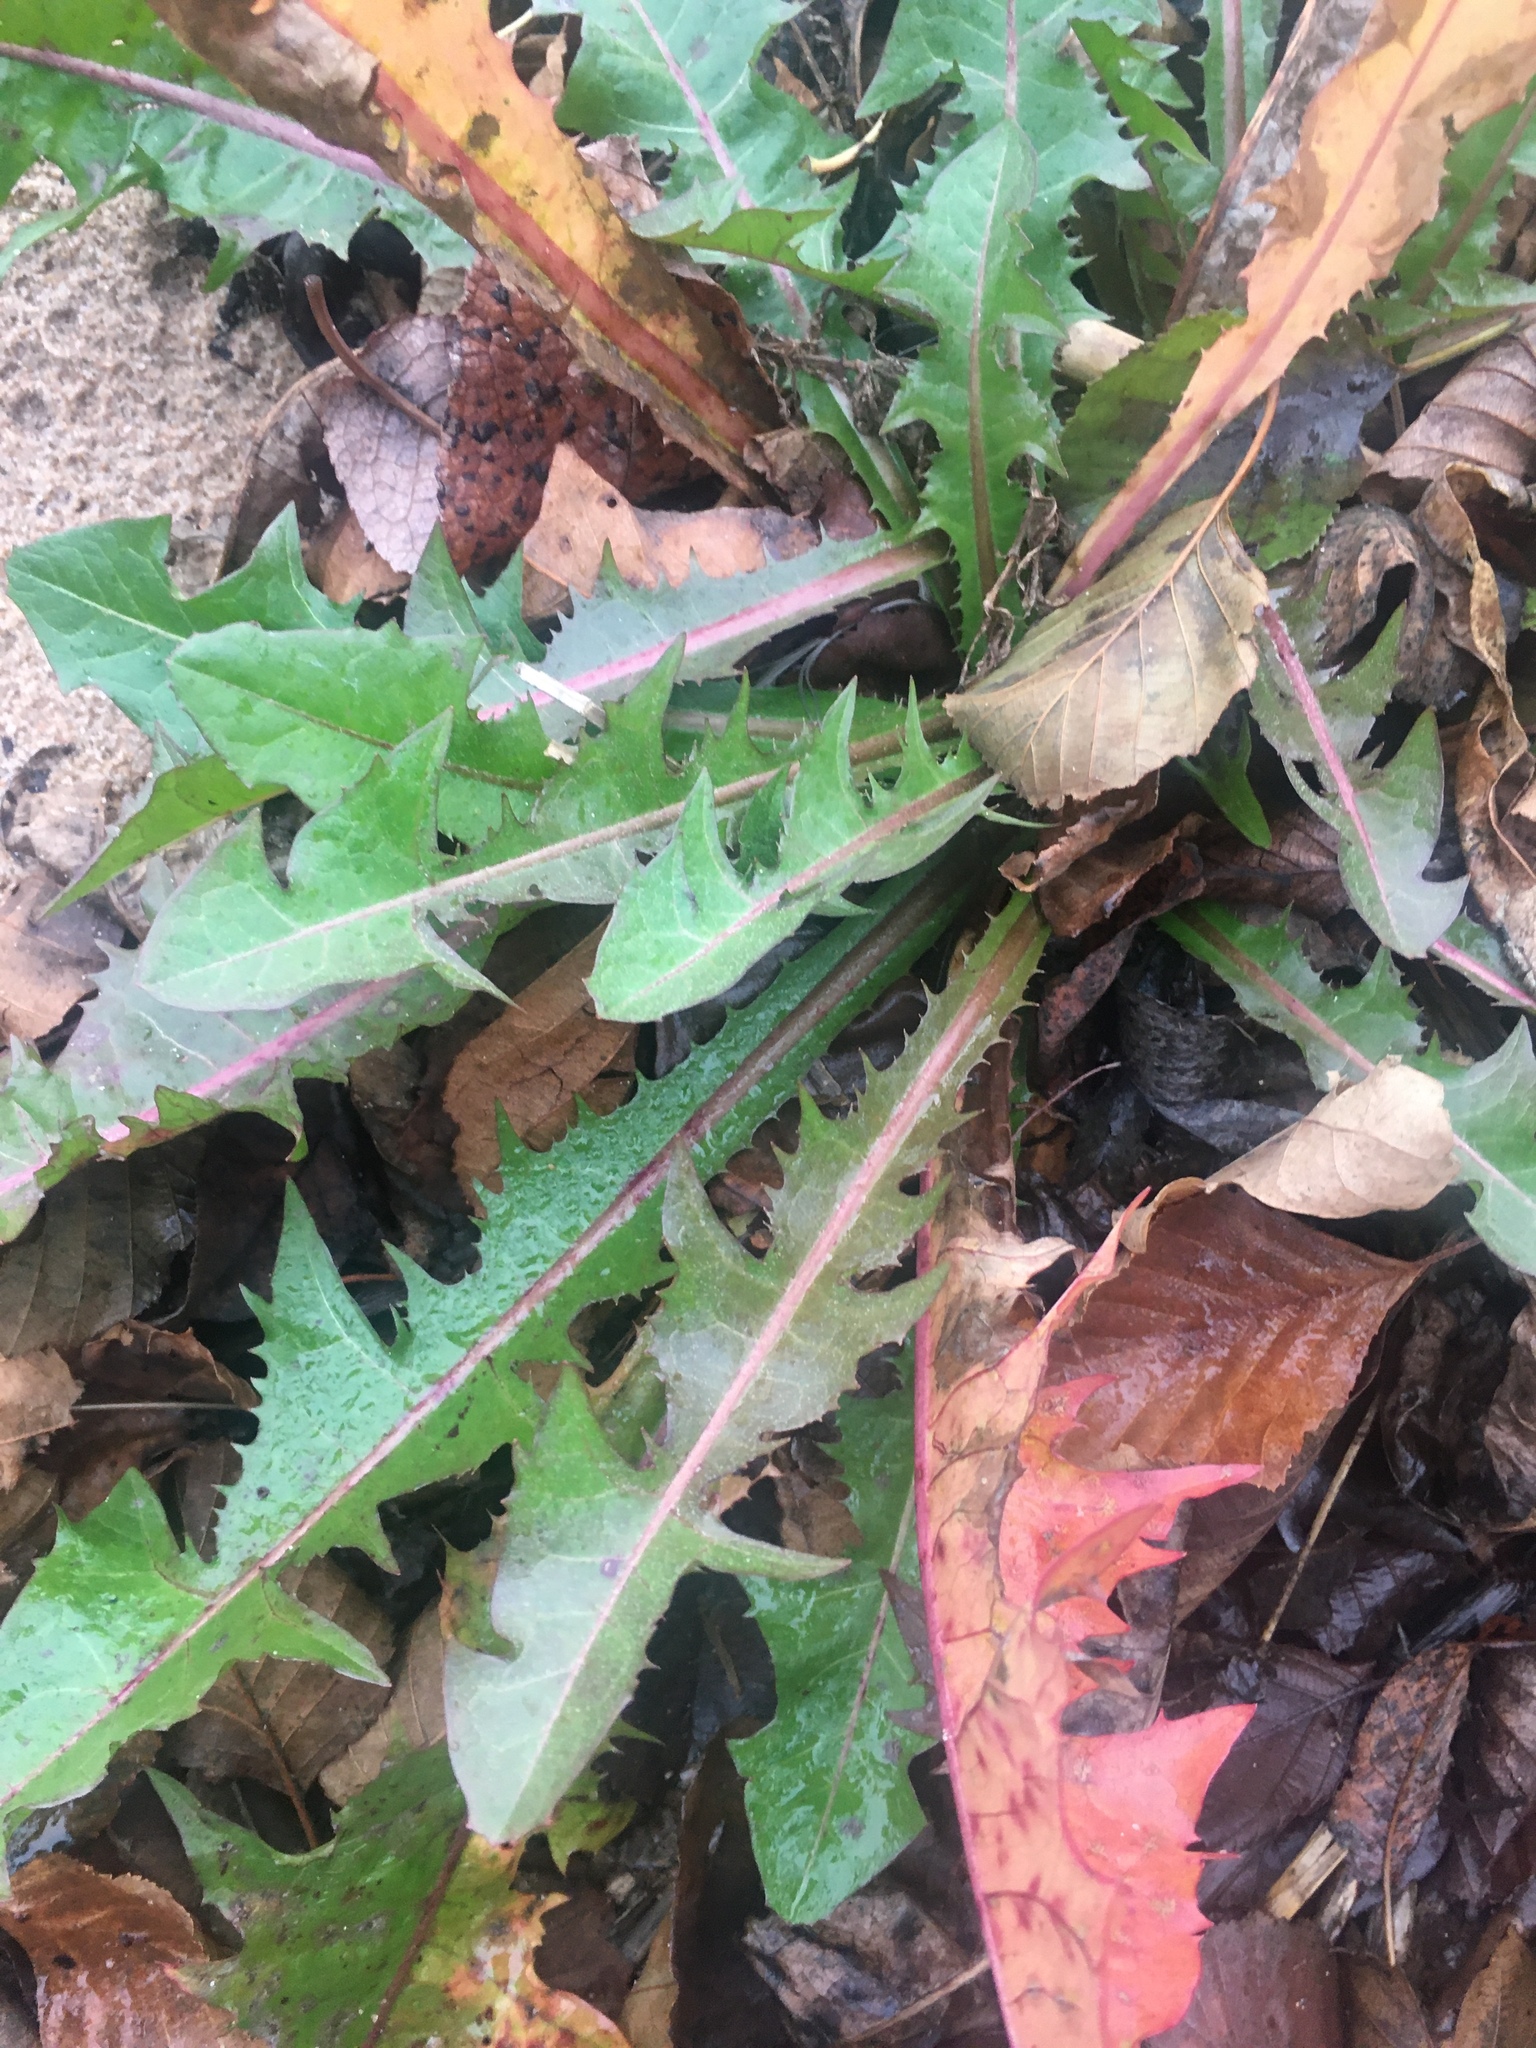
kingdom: Plantae
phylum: Tracheophyta
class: Magnoliopsida
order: Asterales
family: Asteraceae
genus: Taraxacum
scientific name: Taraxacum officinale
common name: Common dandelion
